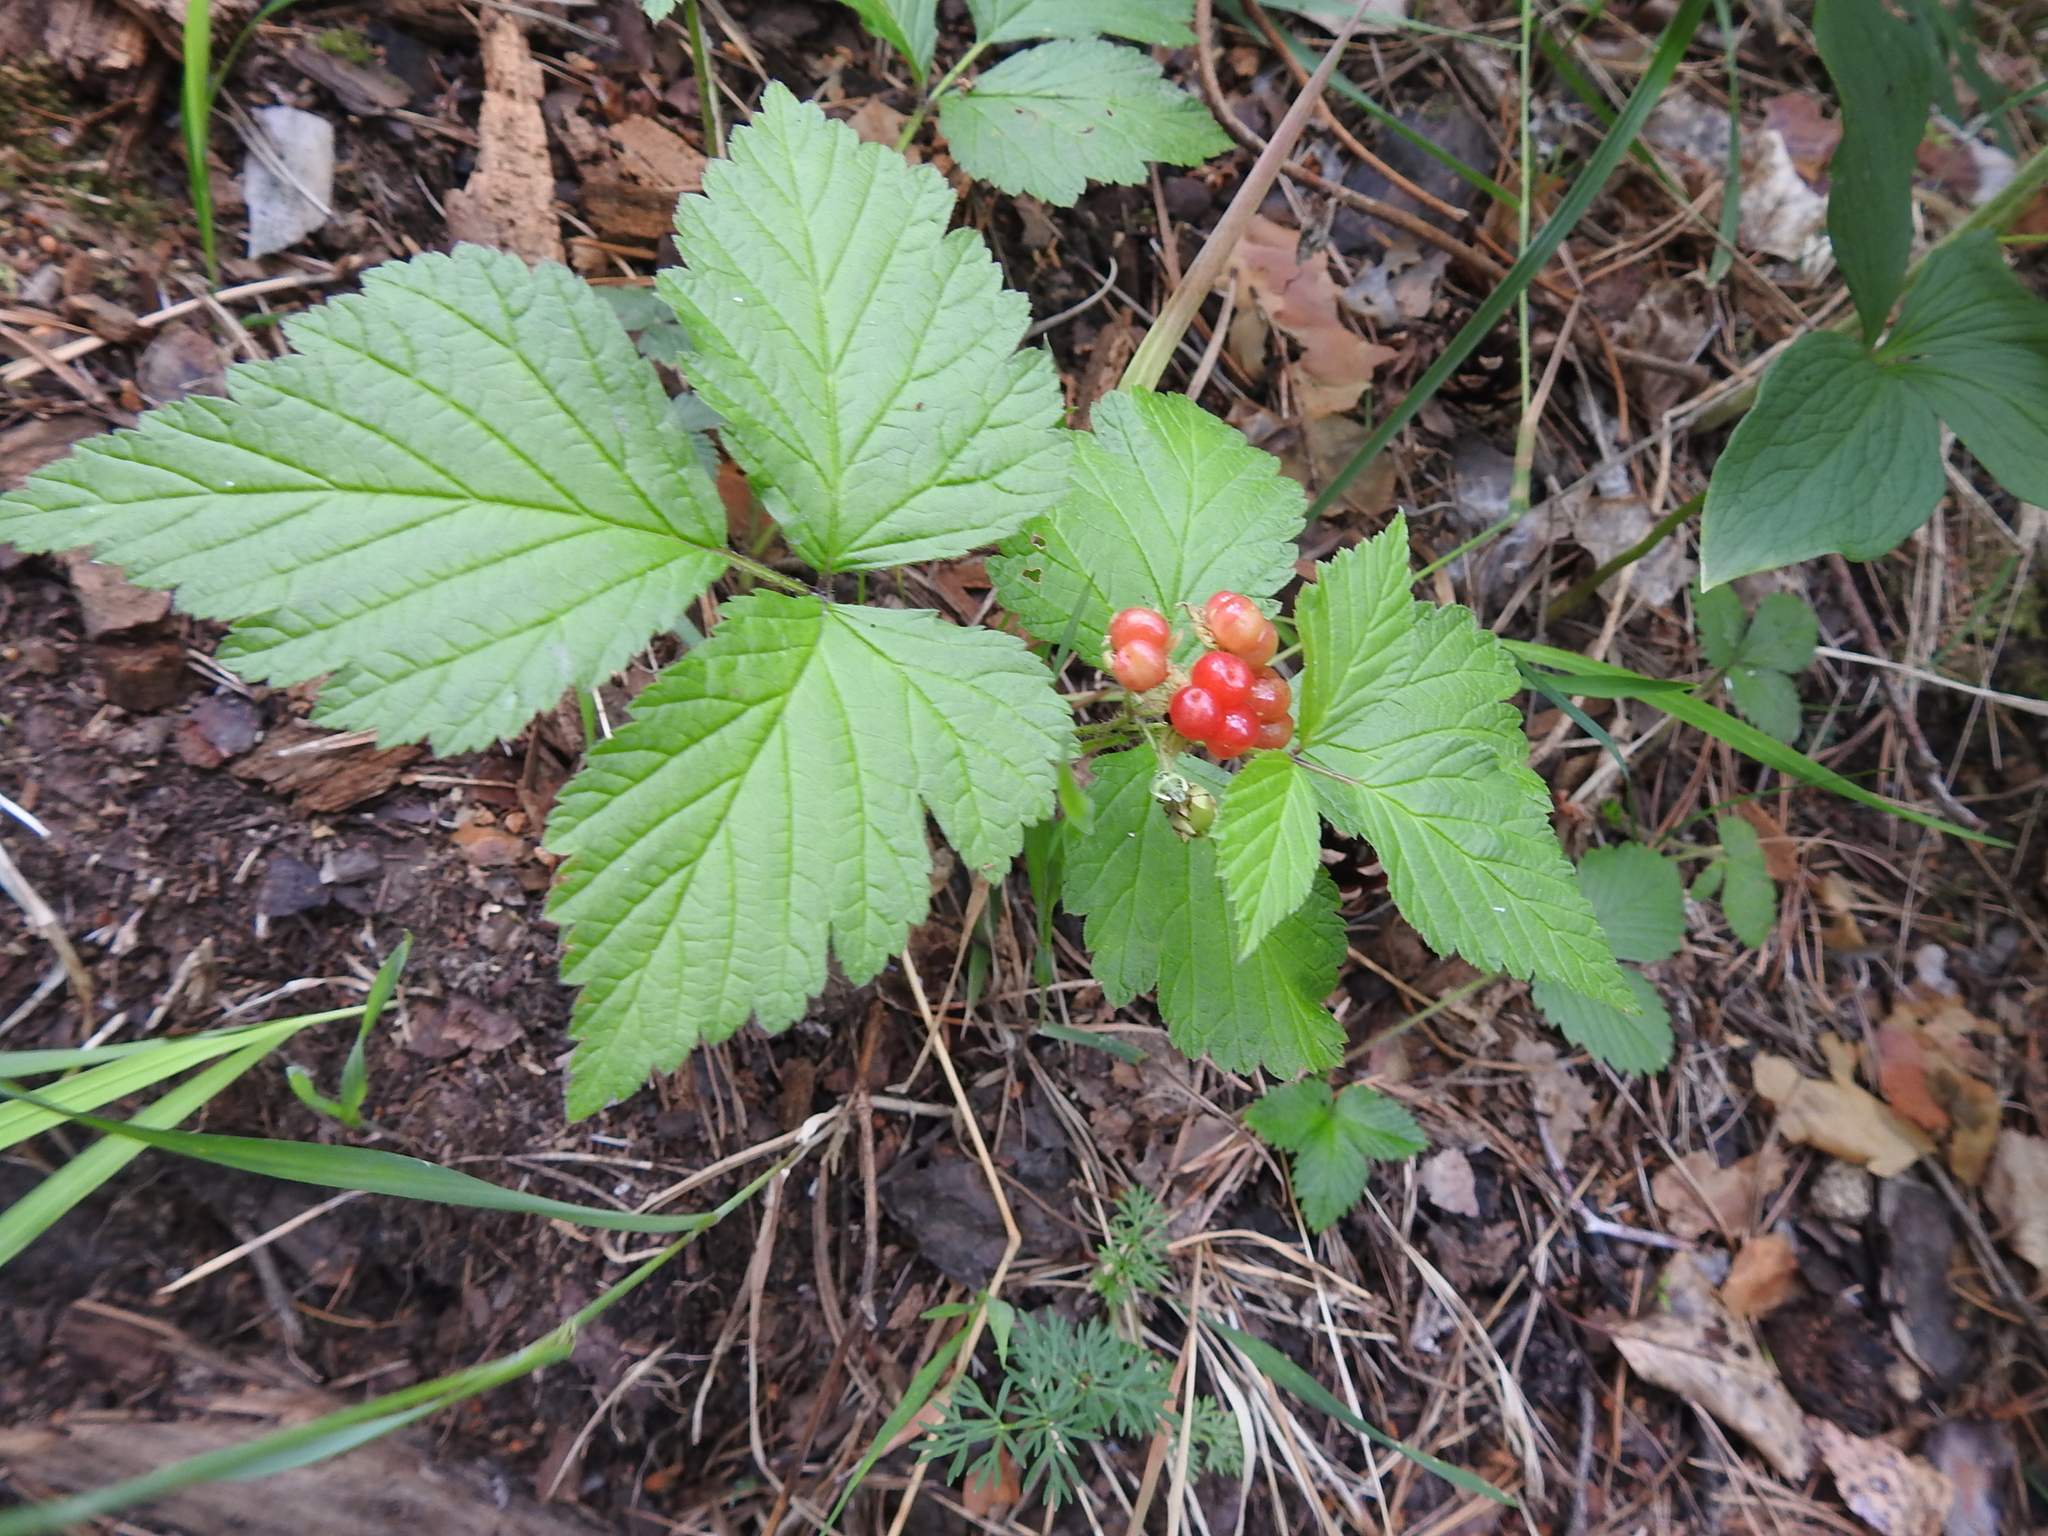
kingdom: Plantae
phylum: Tracheophyta
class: Magnoliopsida
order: Rosales
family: Rosaceae
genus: Rubus
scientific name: Rubus saxatilis
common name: Stone bramble
